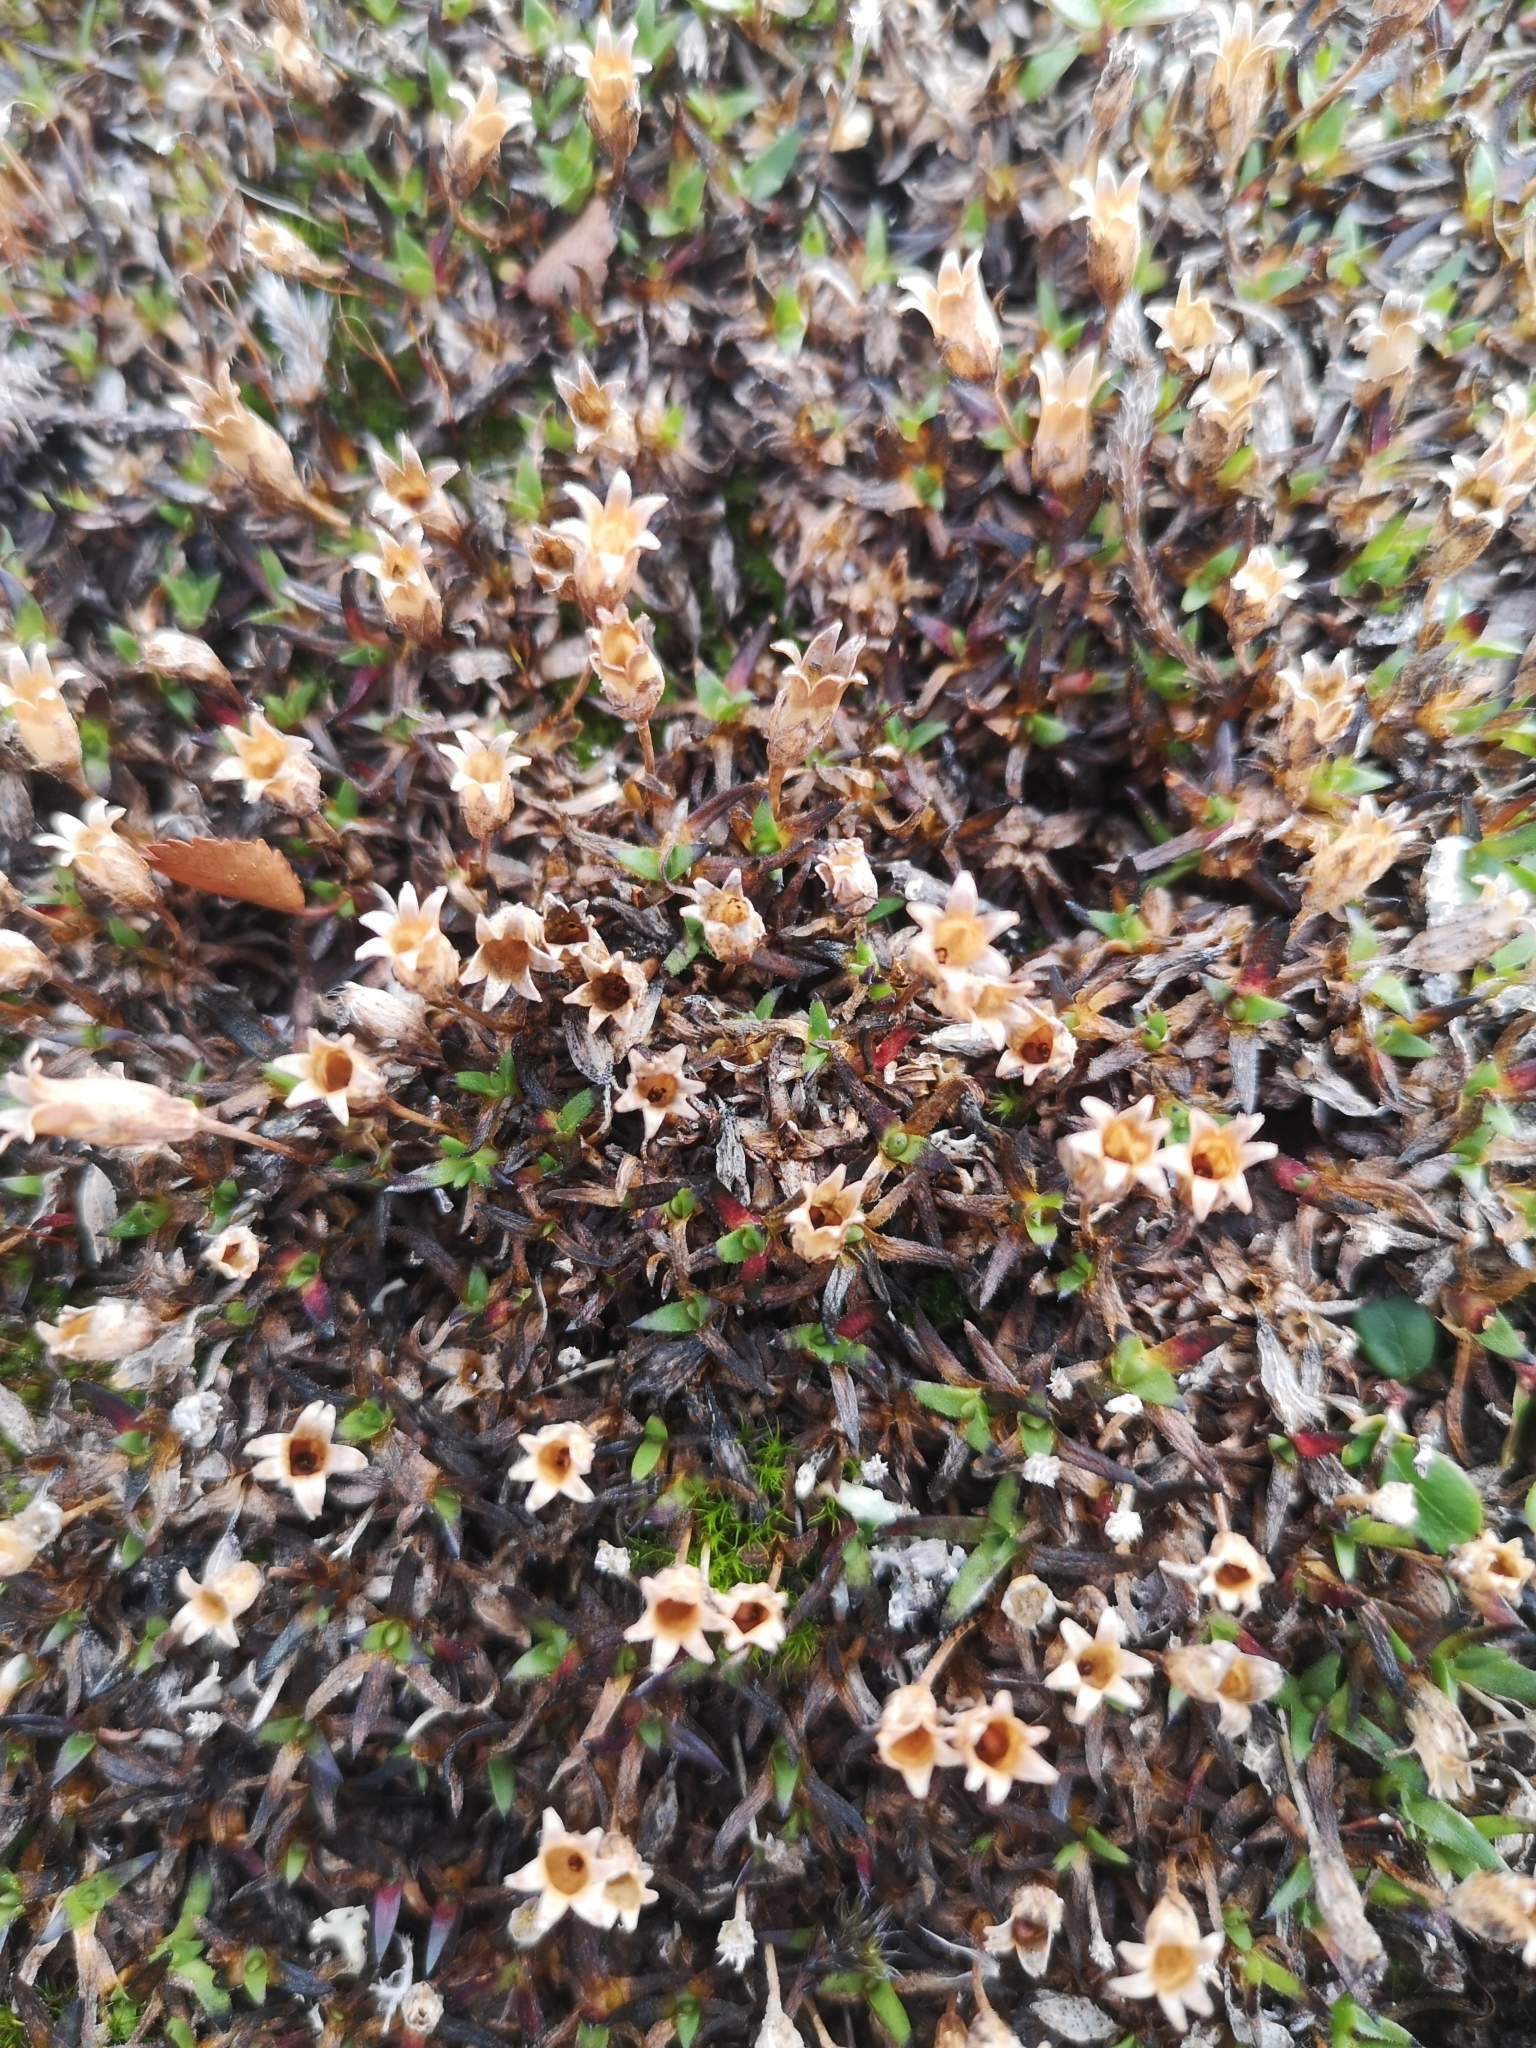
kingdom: Plantae
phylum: Tracheophyta
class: Magnoliopsida
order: Caryophyllales
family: Caryophyllaceae
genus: Silene
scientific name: Silene acaulis
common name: Moss campion
